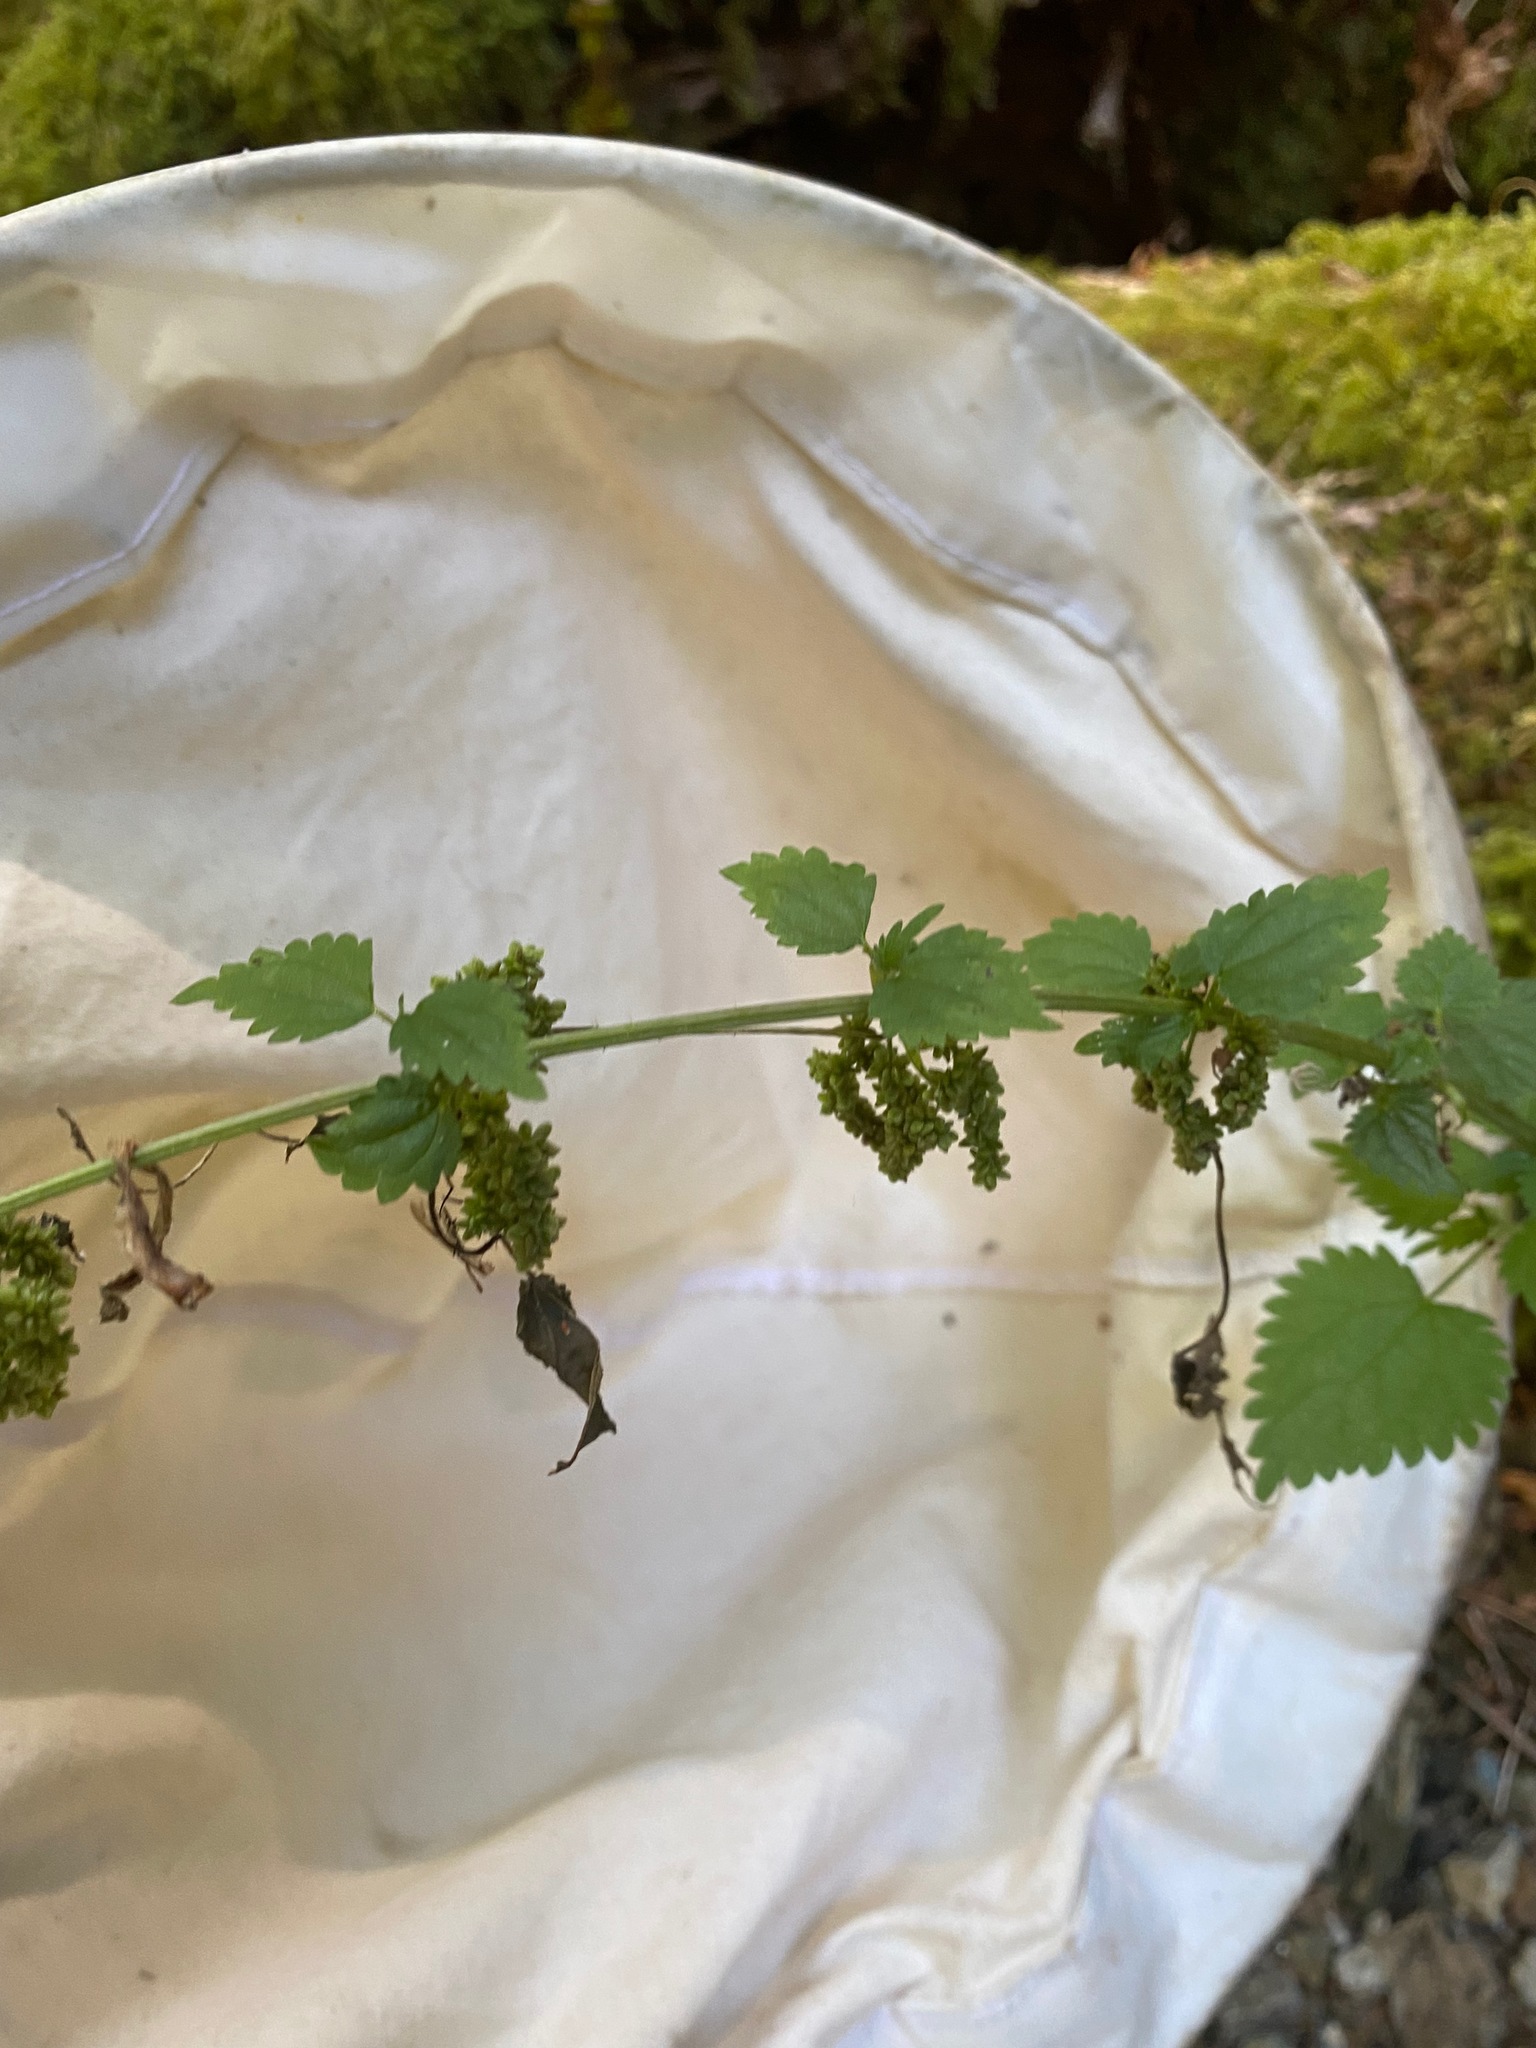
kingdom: Plantae
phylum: Tracheophyta
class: Magnoliopsida
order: Rosales
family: Urticaceae
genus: Urtica
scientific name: Urtica dioica
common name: Common nettle
